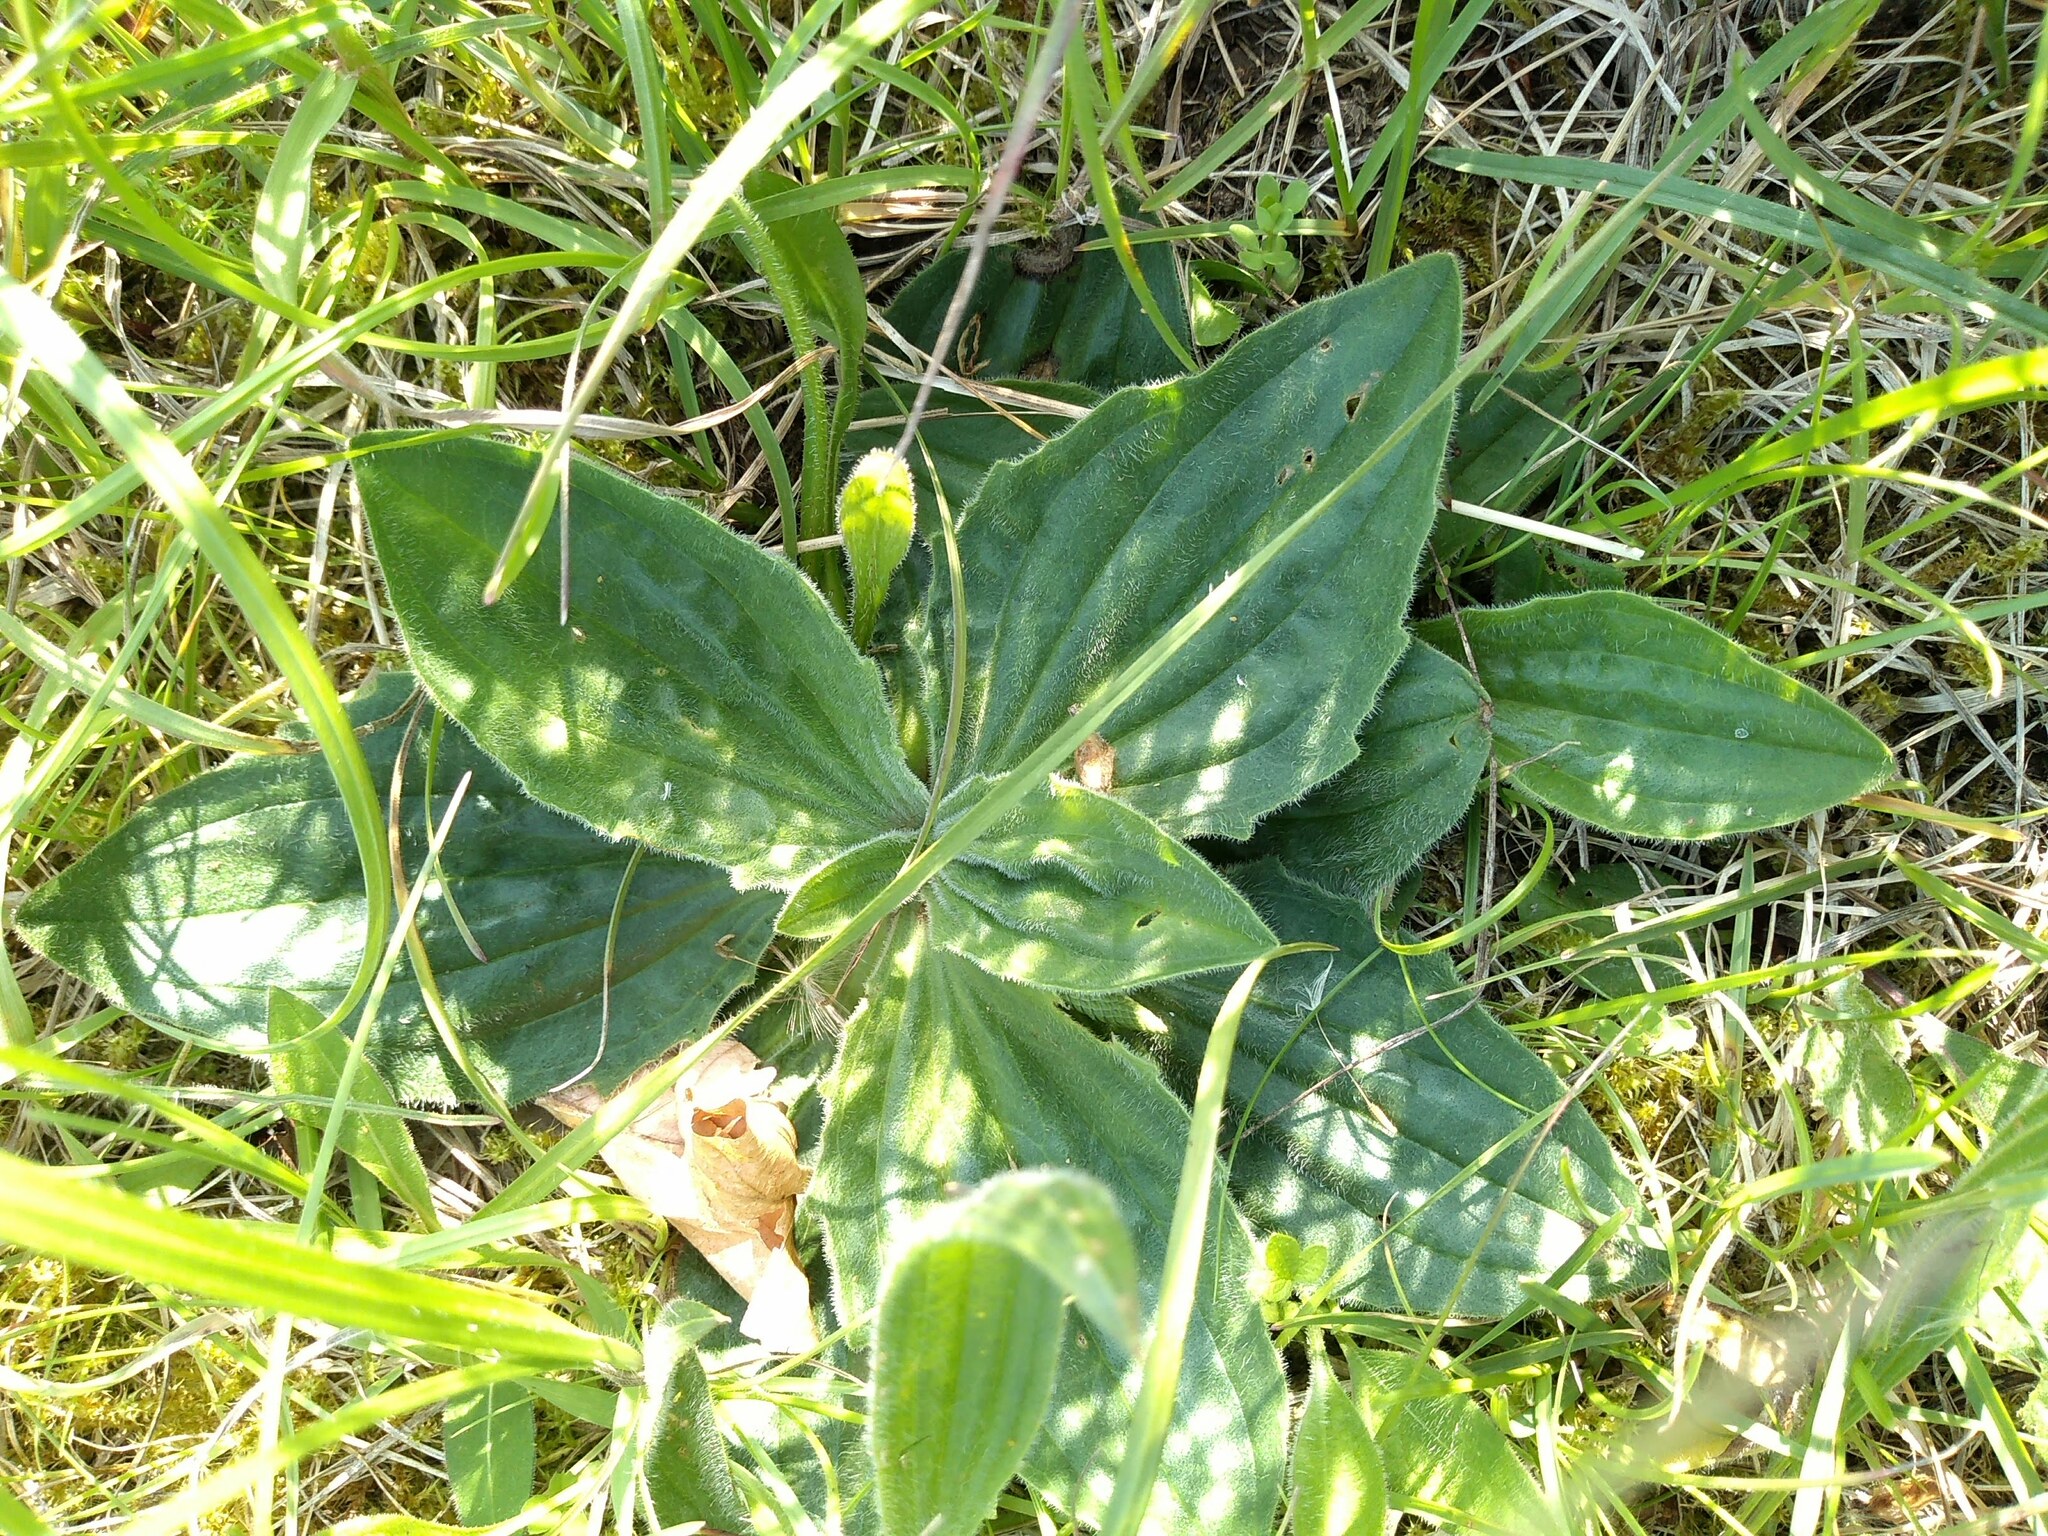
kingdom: Plantae
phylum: Tracheophyta
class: Magnoliopsida
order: Lamiales
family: Plantaginaceae
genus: Plantago
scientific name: Plantago media
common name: Hoary plantain
